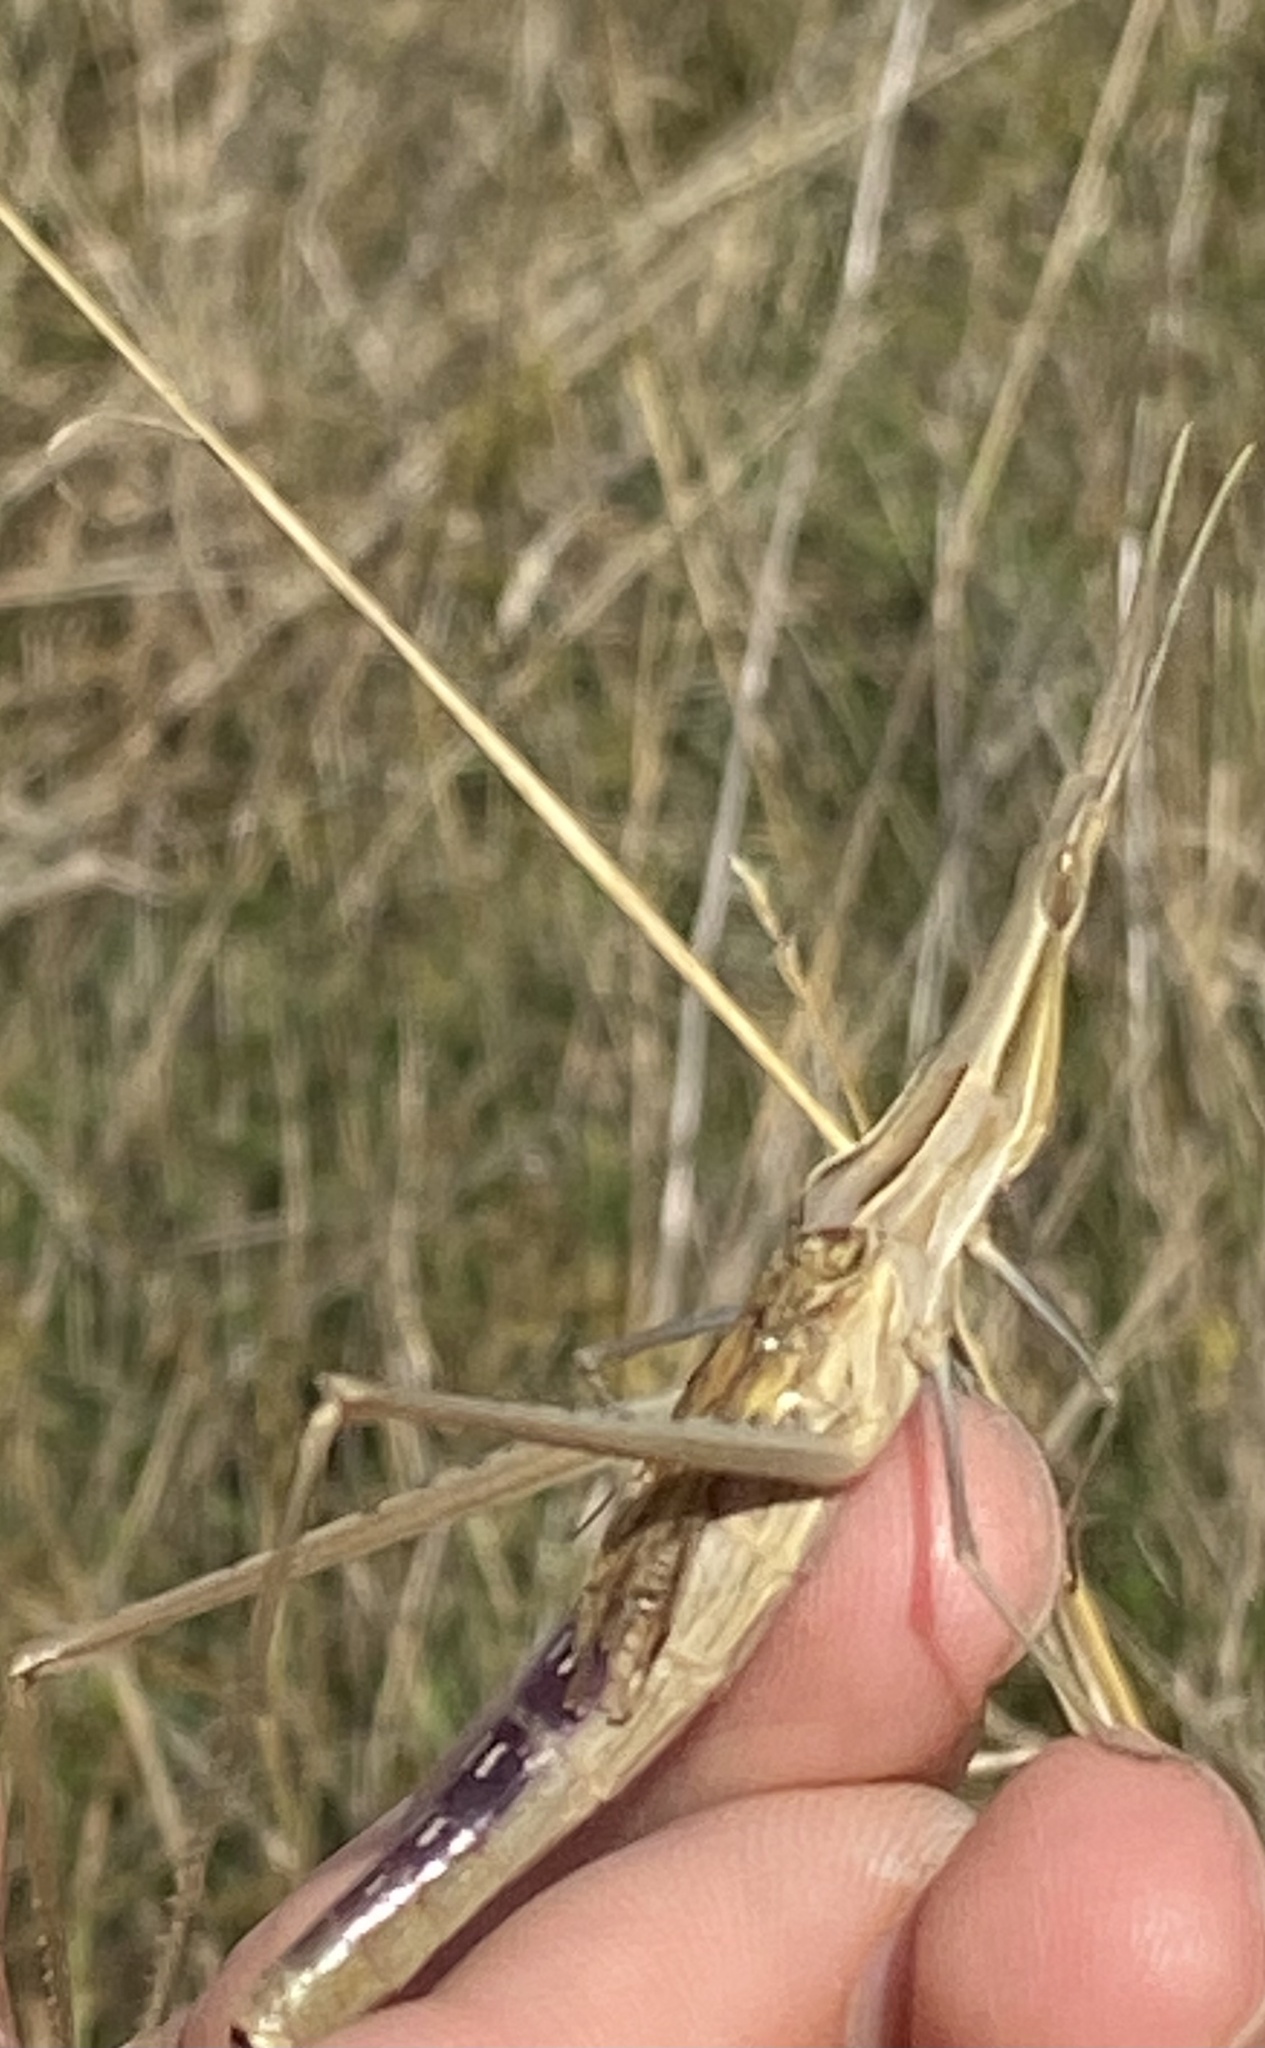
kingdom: Animalia
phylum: Arthropoda
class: Insecta
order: Orthoptera
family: Acrididae
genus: Acrida
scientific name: Acrida ungarica
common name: Common cone-headed grasshopper
